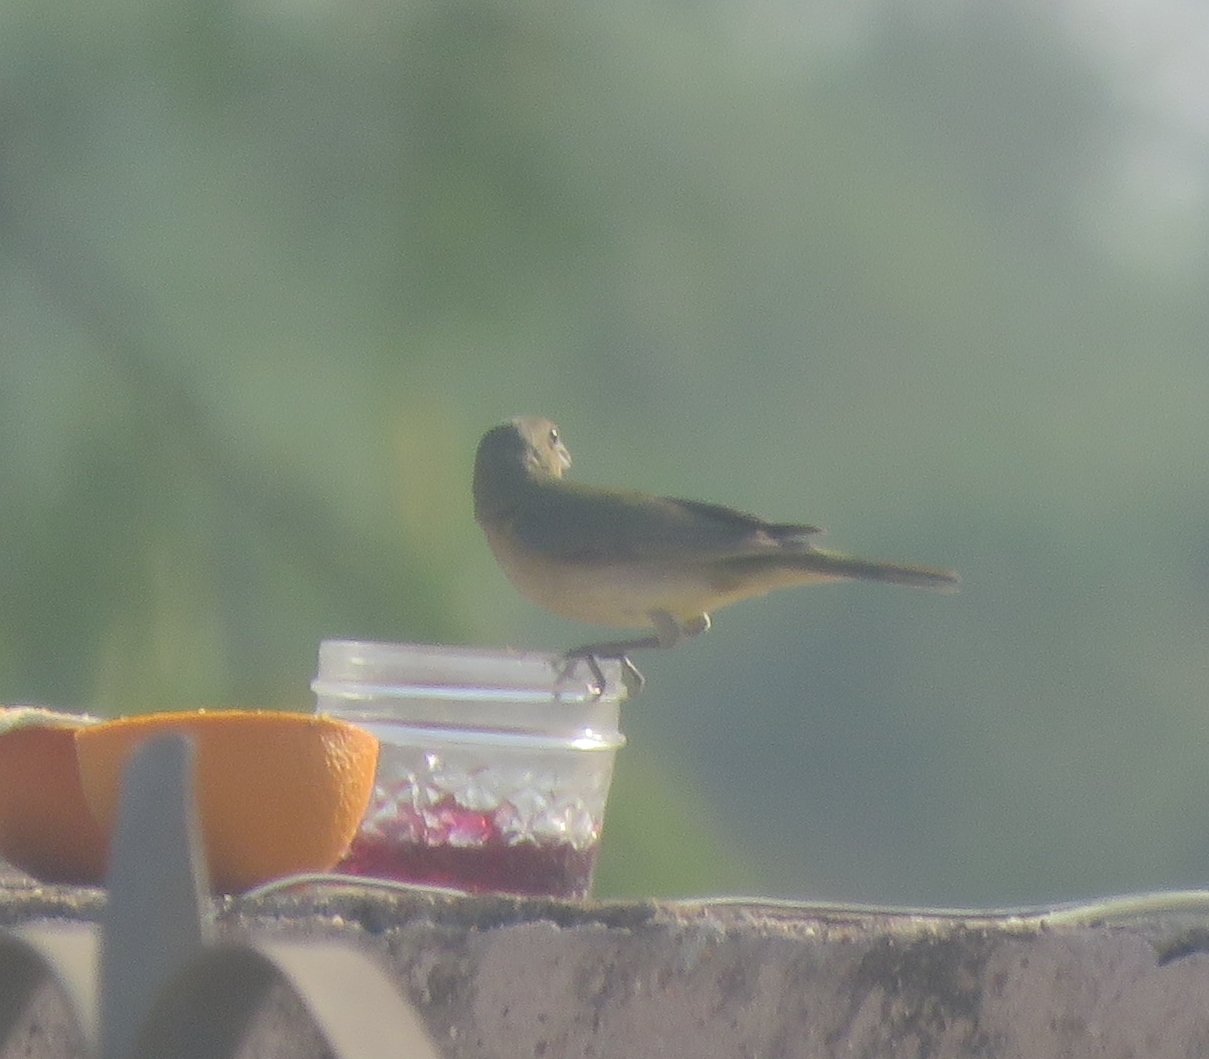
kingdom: Animalia
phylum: Chordata
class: Aves
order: Passeriformes
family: Cardinalidae
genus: Passerina
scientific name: Passerina ciris
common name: Painted bunting
